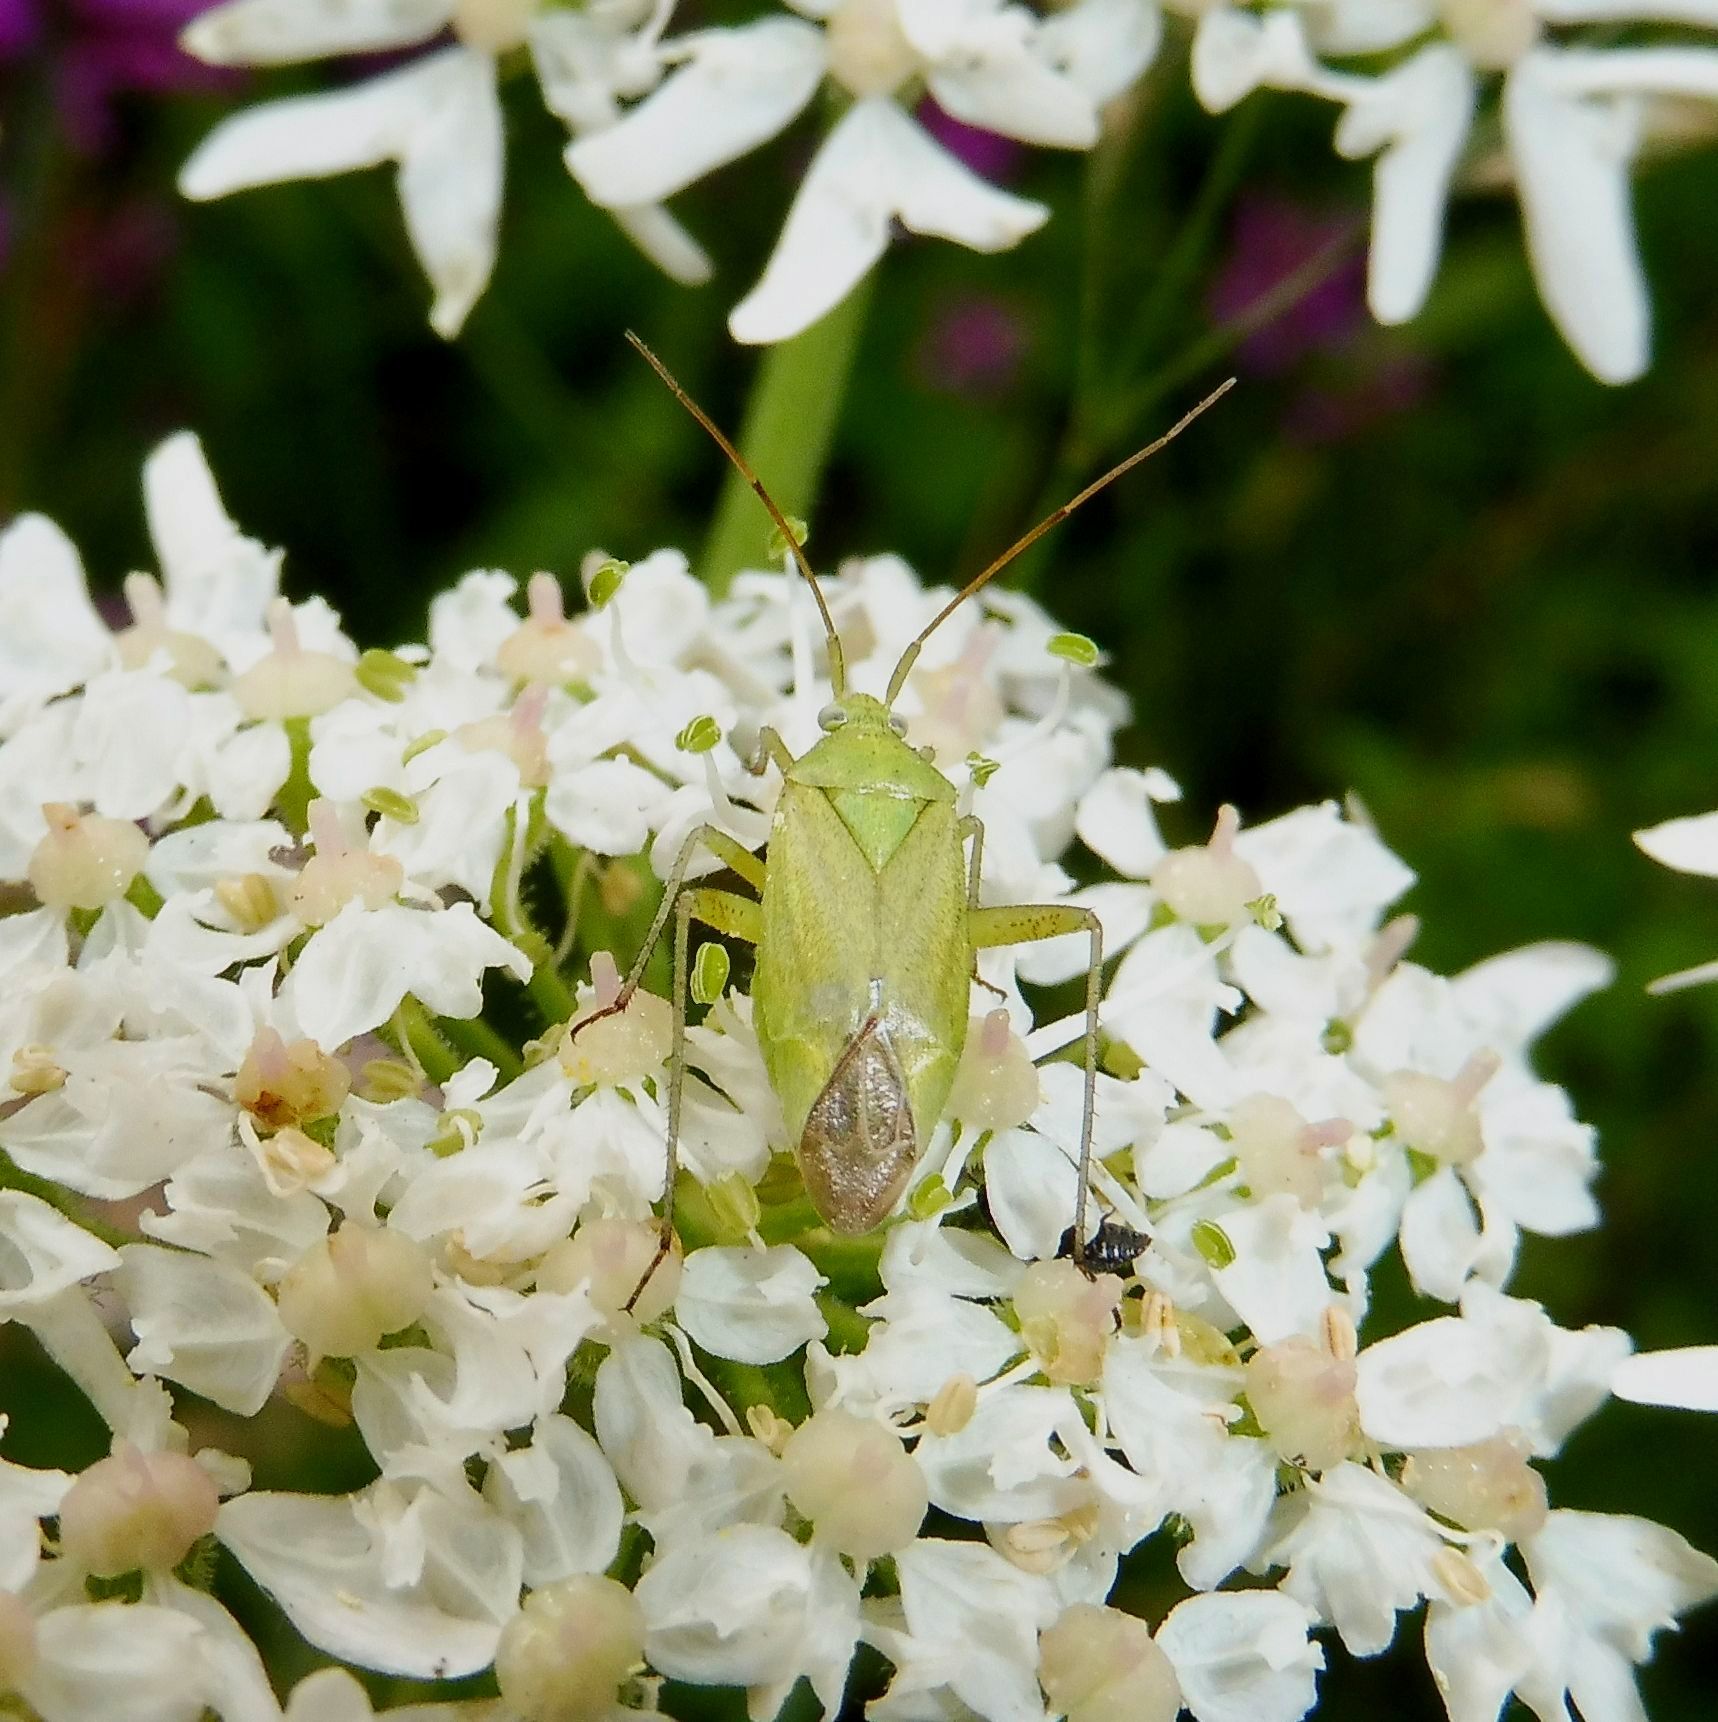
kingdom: Animalia
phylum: Arthropoda
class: Insecta
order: Hemiptera
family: Miridae
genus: Closterotomus
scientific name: Closterotomus norvegicus
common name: Plant bug
